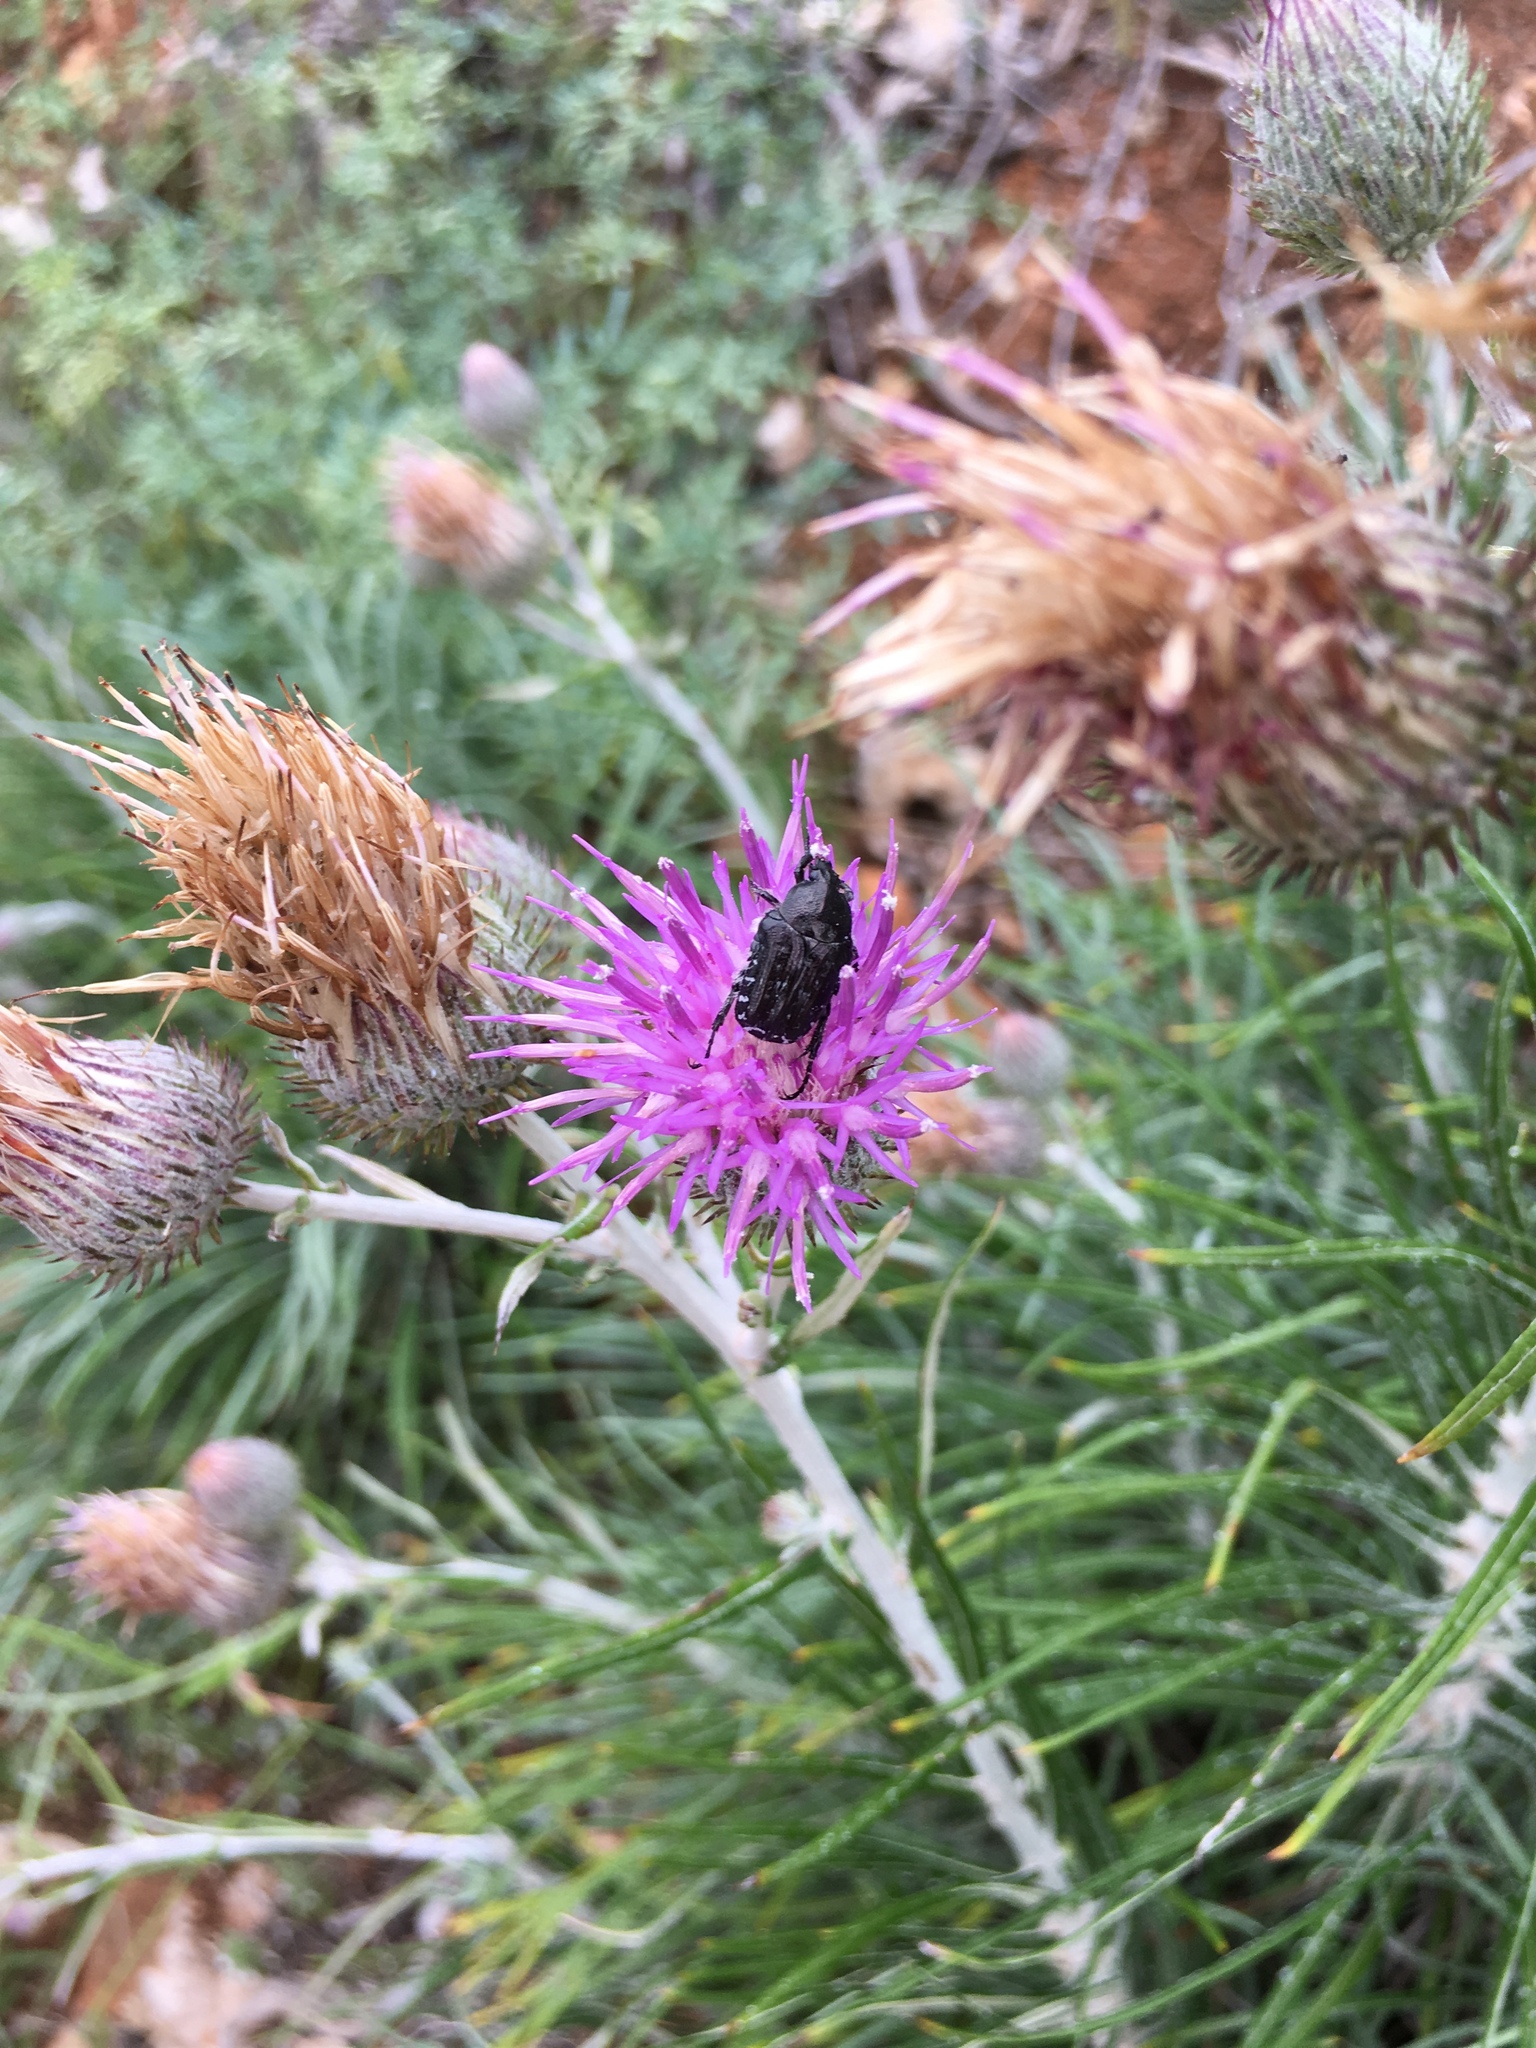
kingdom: Animalia
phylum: Arthropoda
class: Insecta
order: Coleoptera
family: Scarabaeidae
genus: Oxythyrea
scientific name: Oxythyrea funesta
